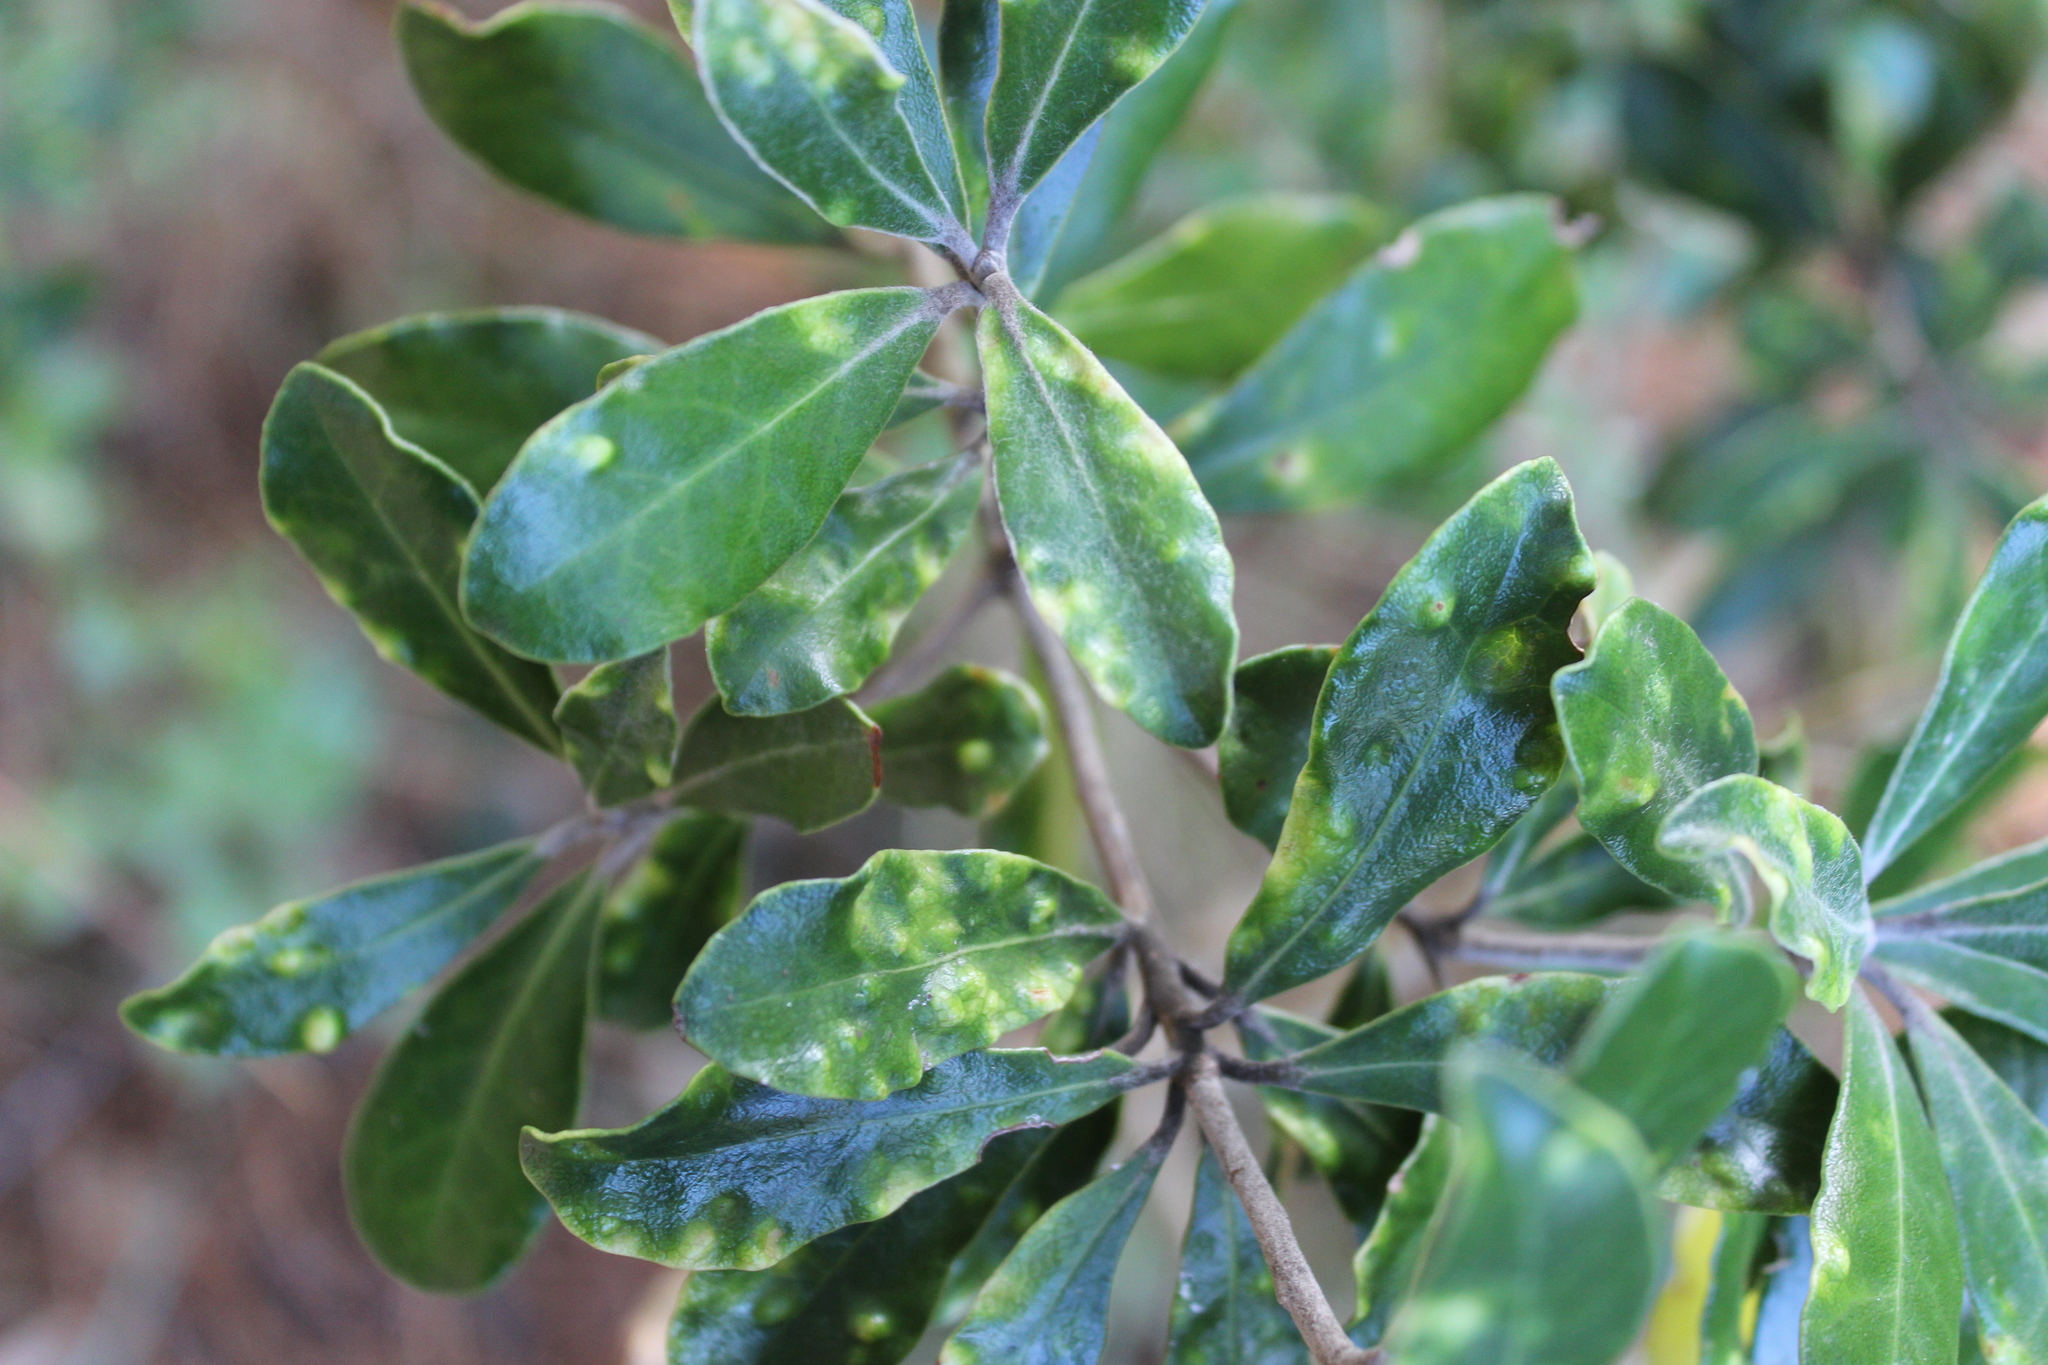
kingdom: Plantae
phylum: Tracheophyta
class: Magnoliopsida
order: Apiales
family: Pittosporaceae
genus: Pittosporum
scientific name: Pittosporum crassifolium
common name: Karo
